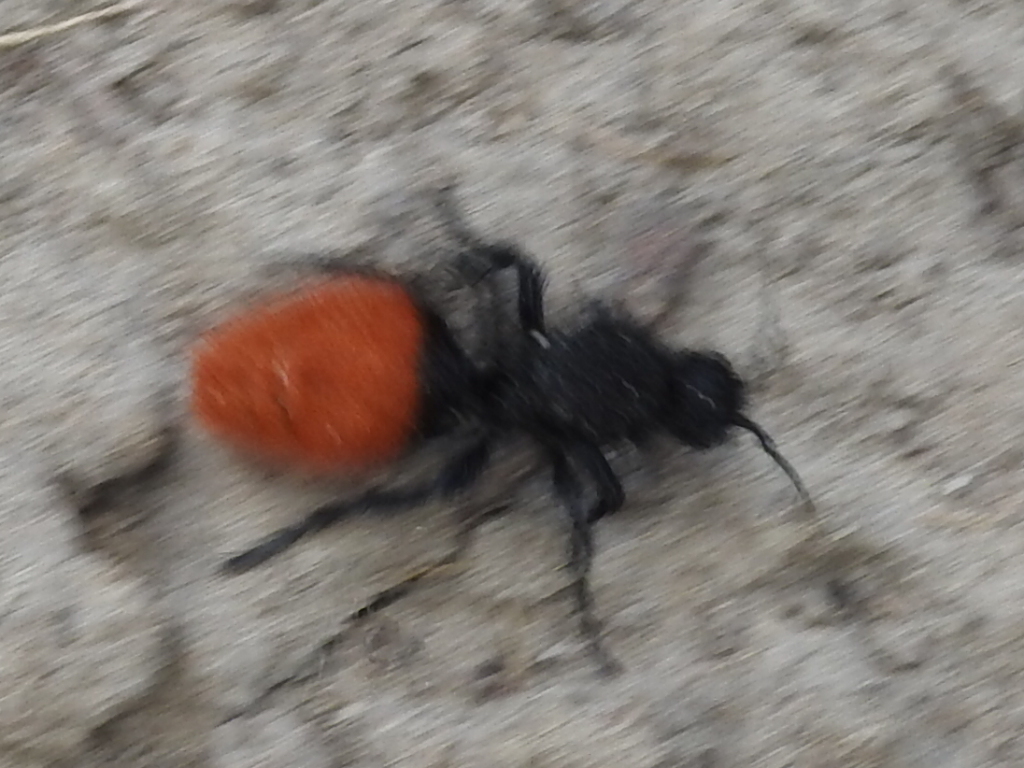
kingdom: Animalia
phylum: Arthropoda
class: Insecta
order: Hymenoptera
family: Mutillidae
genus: Dasymutilla
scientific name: Dasymutilla
